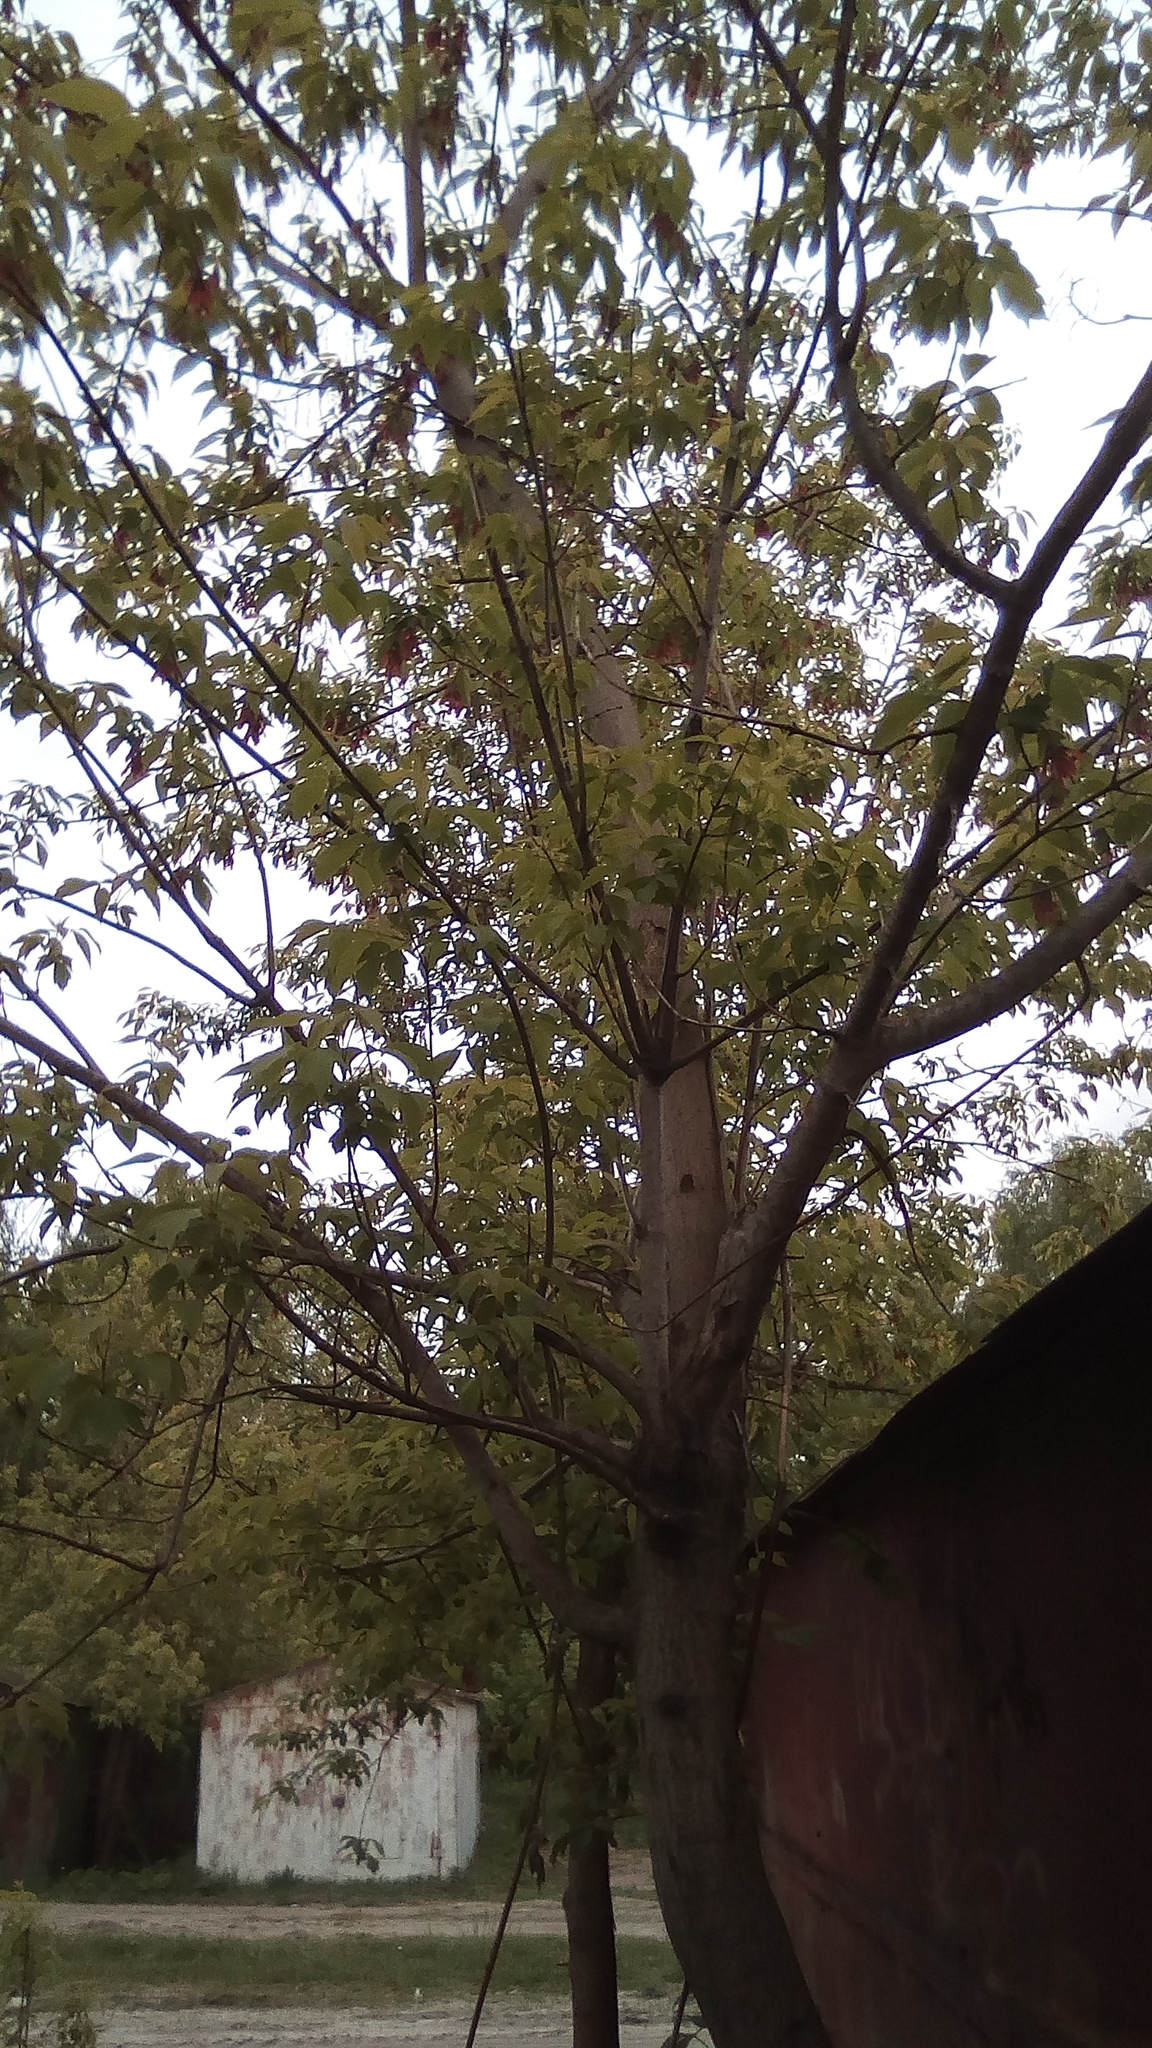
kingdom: Plantae
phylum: Tracheophyta
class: Magnoliopsida
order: Sapindales
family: Sapindaceae
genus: Acer
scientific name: Acer negundo
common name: Ashleaf maple
